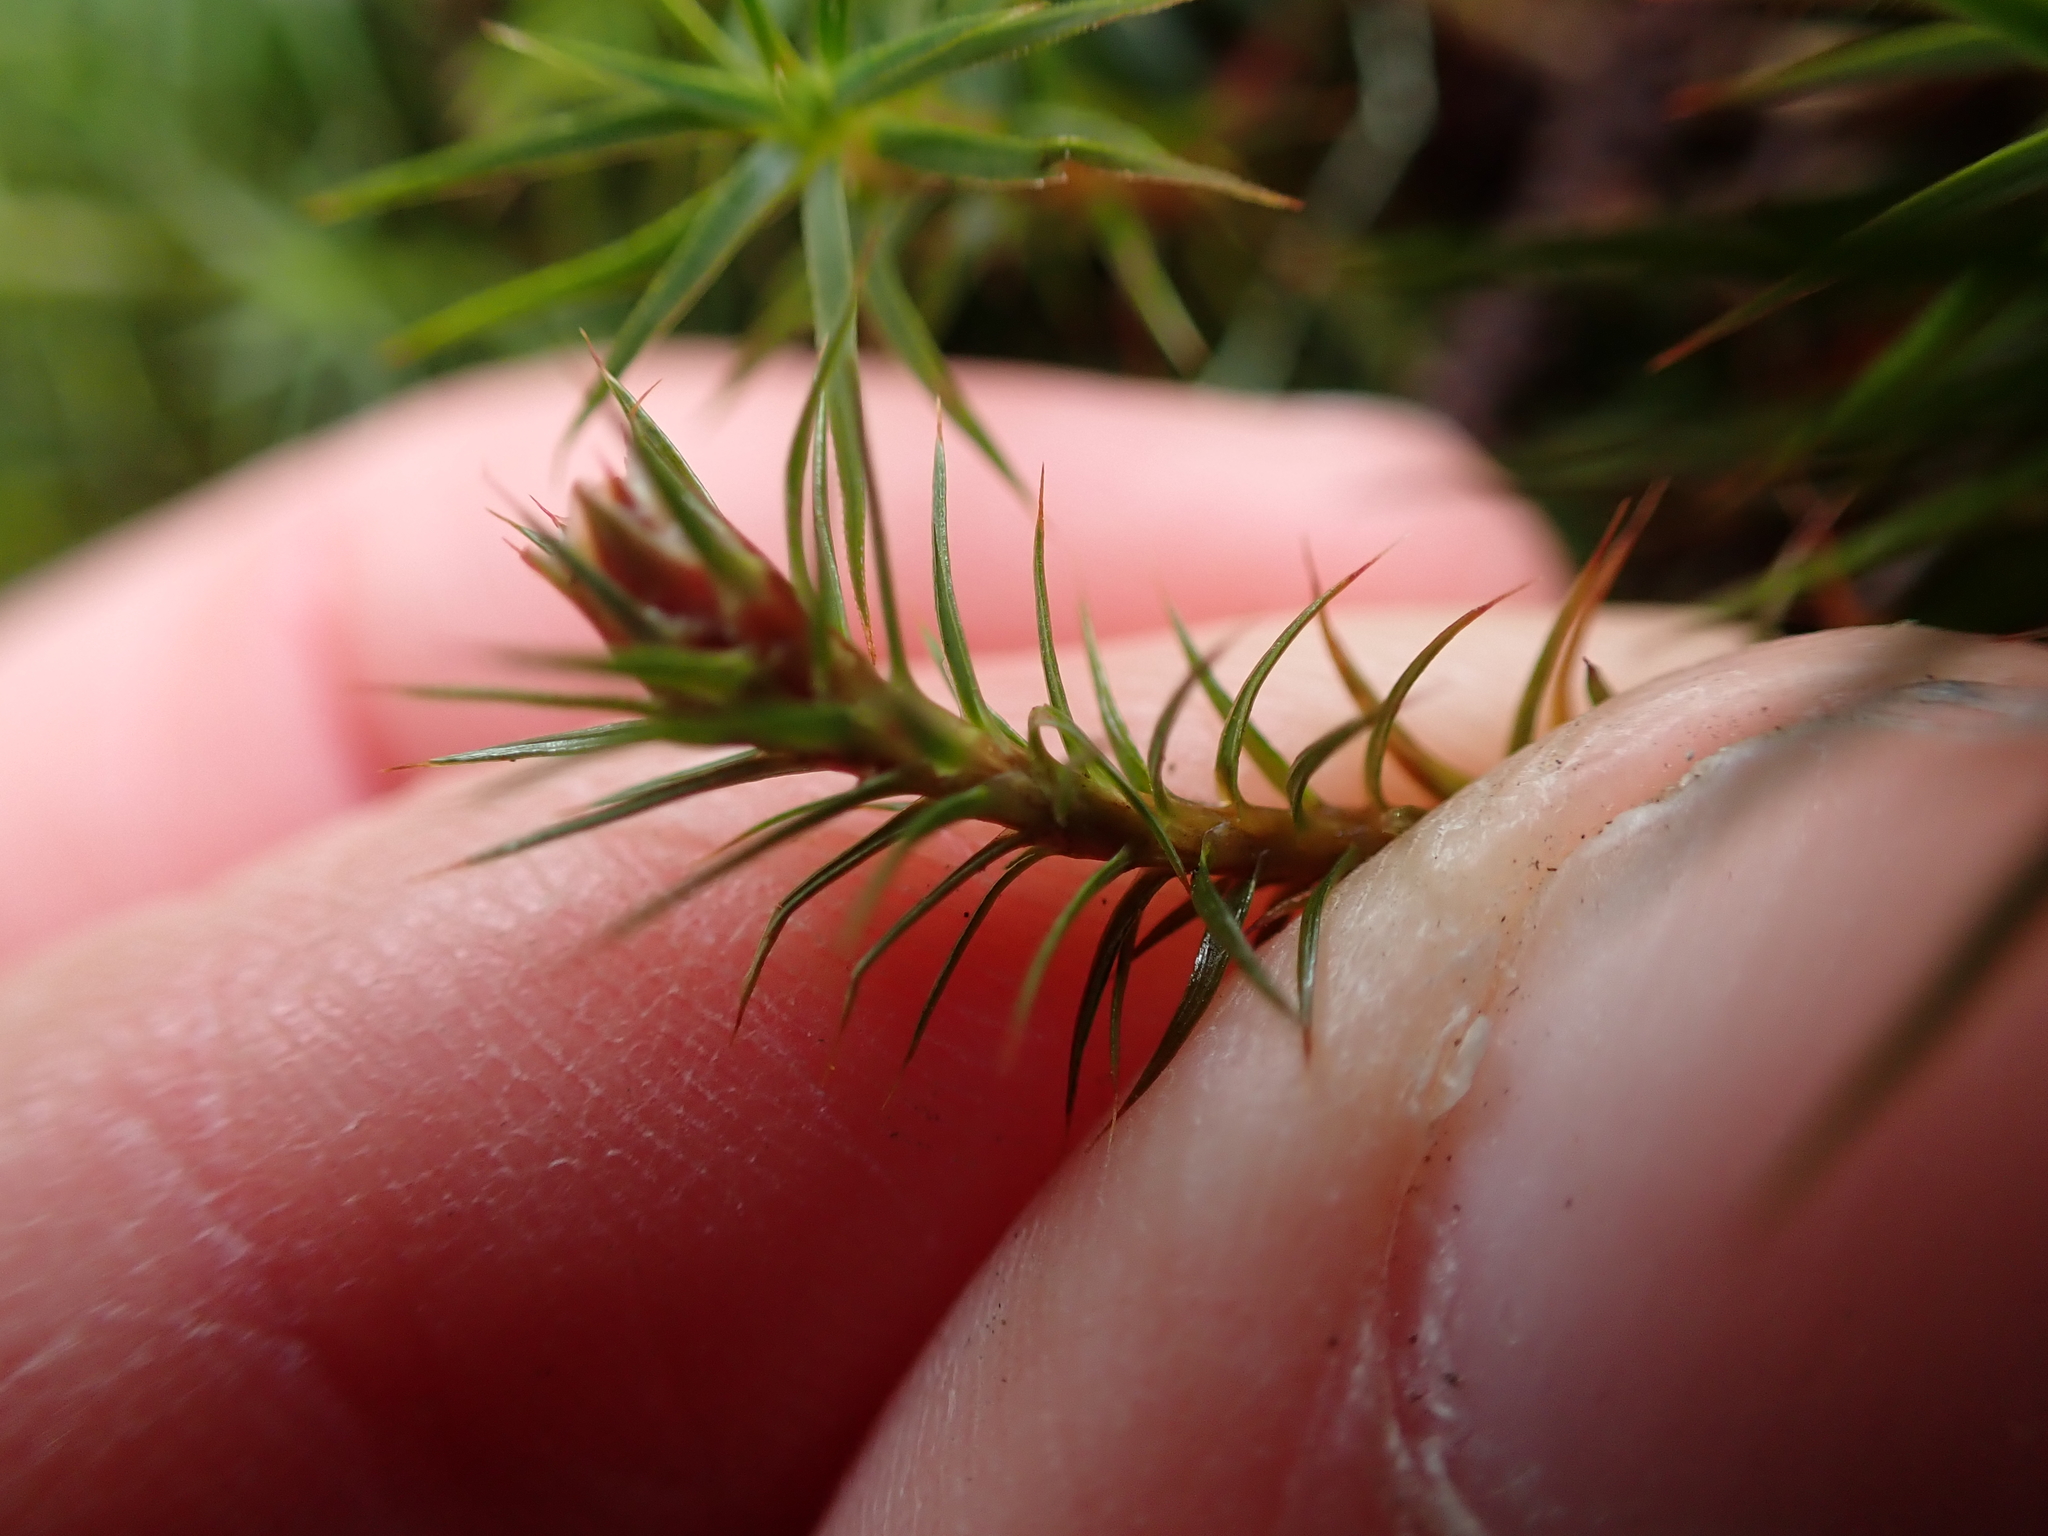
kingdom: Plantae
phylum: Bryophyta
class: Polytrichopsida
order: Polytrichales
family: Polytrichaceae
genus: Polytrichum
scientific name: Polytrichum juniperinum
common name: Juniper haircap moss
